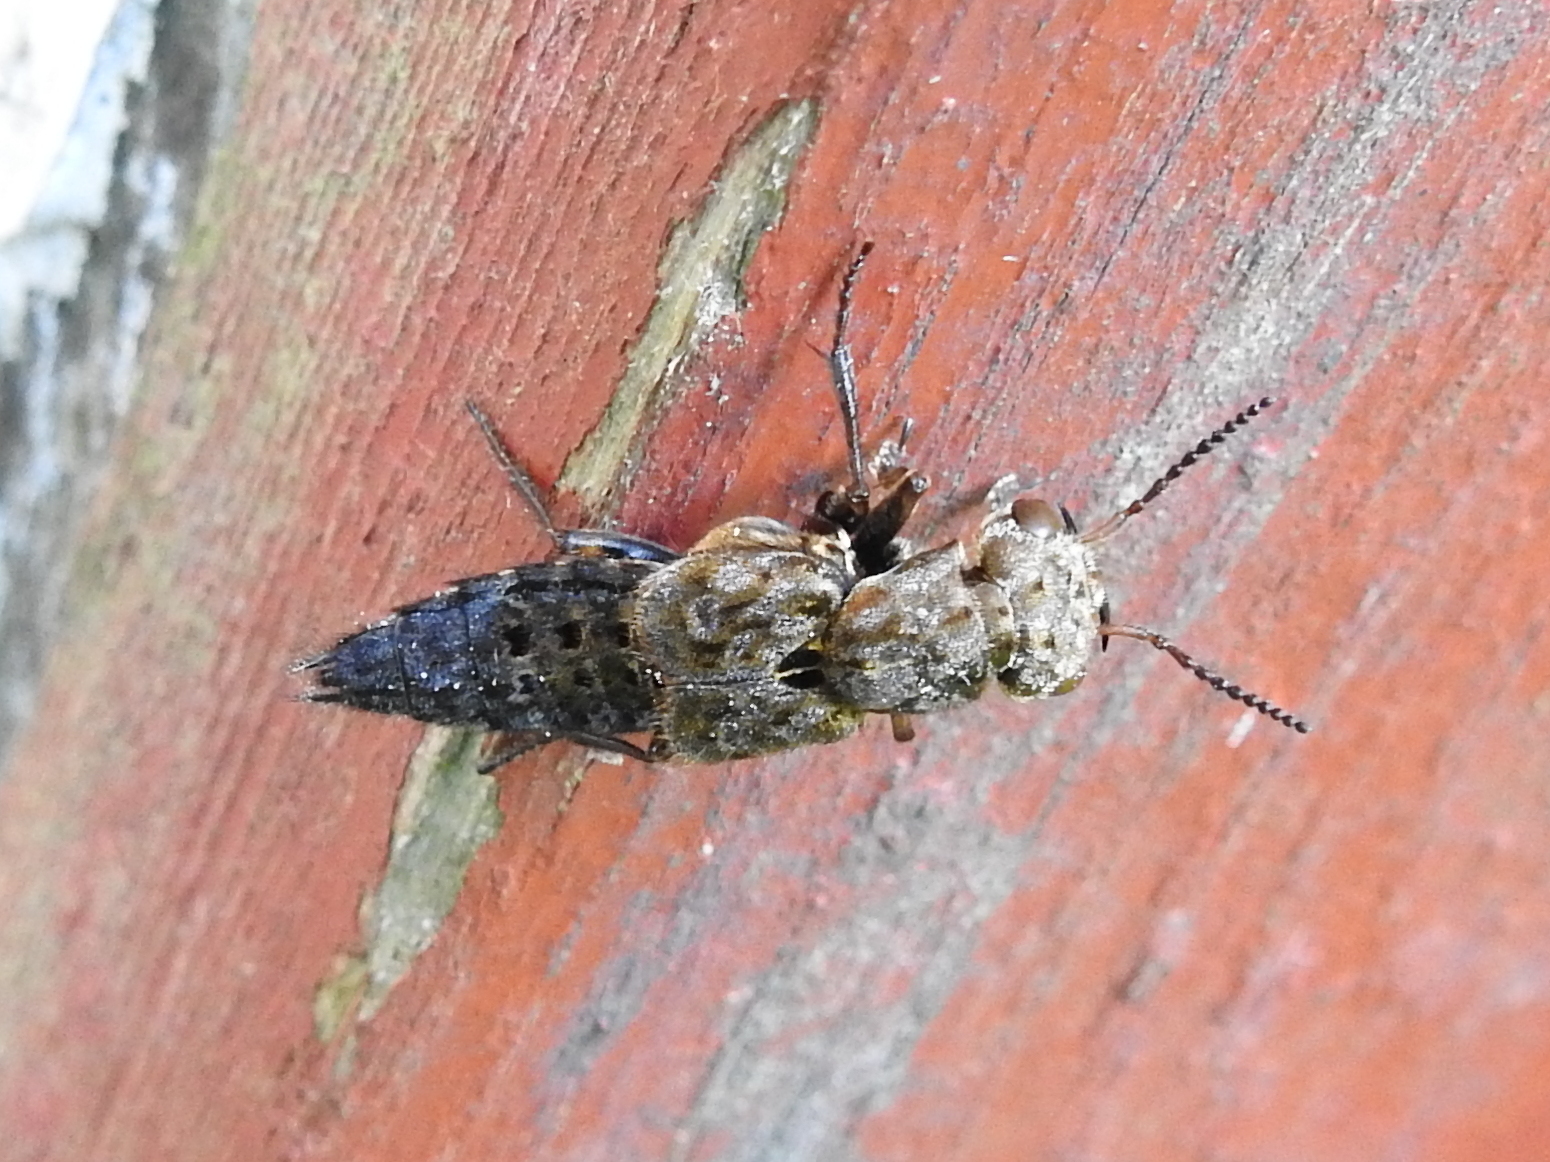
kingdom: Animalia
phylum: Arthropoda
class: Insecta
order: Coleoptera
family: Staphylinidae
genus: Ontholestes
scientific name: Ontholestes tessellatus
